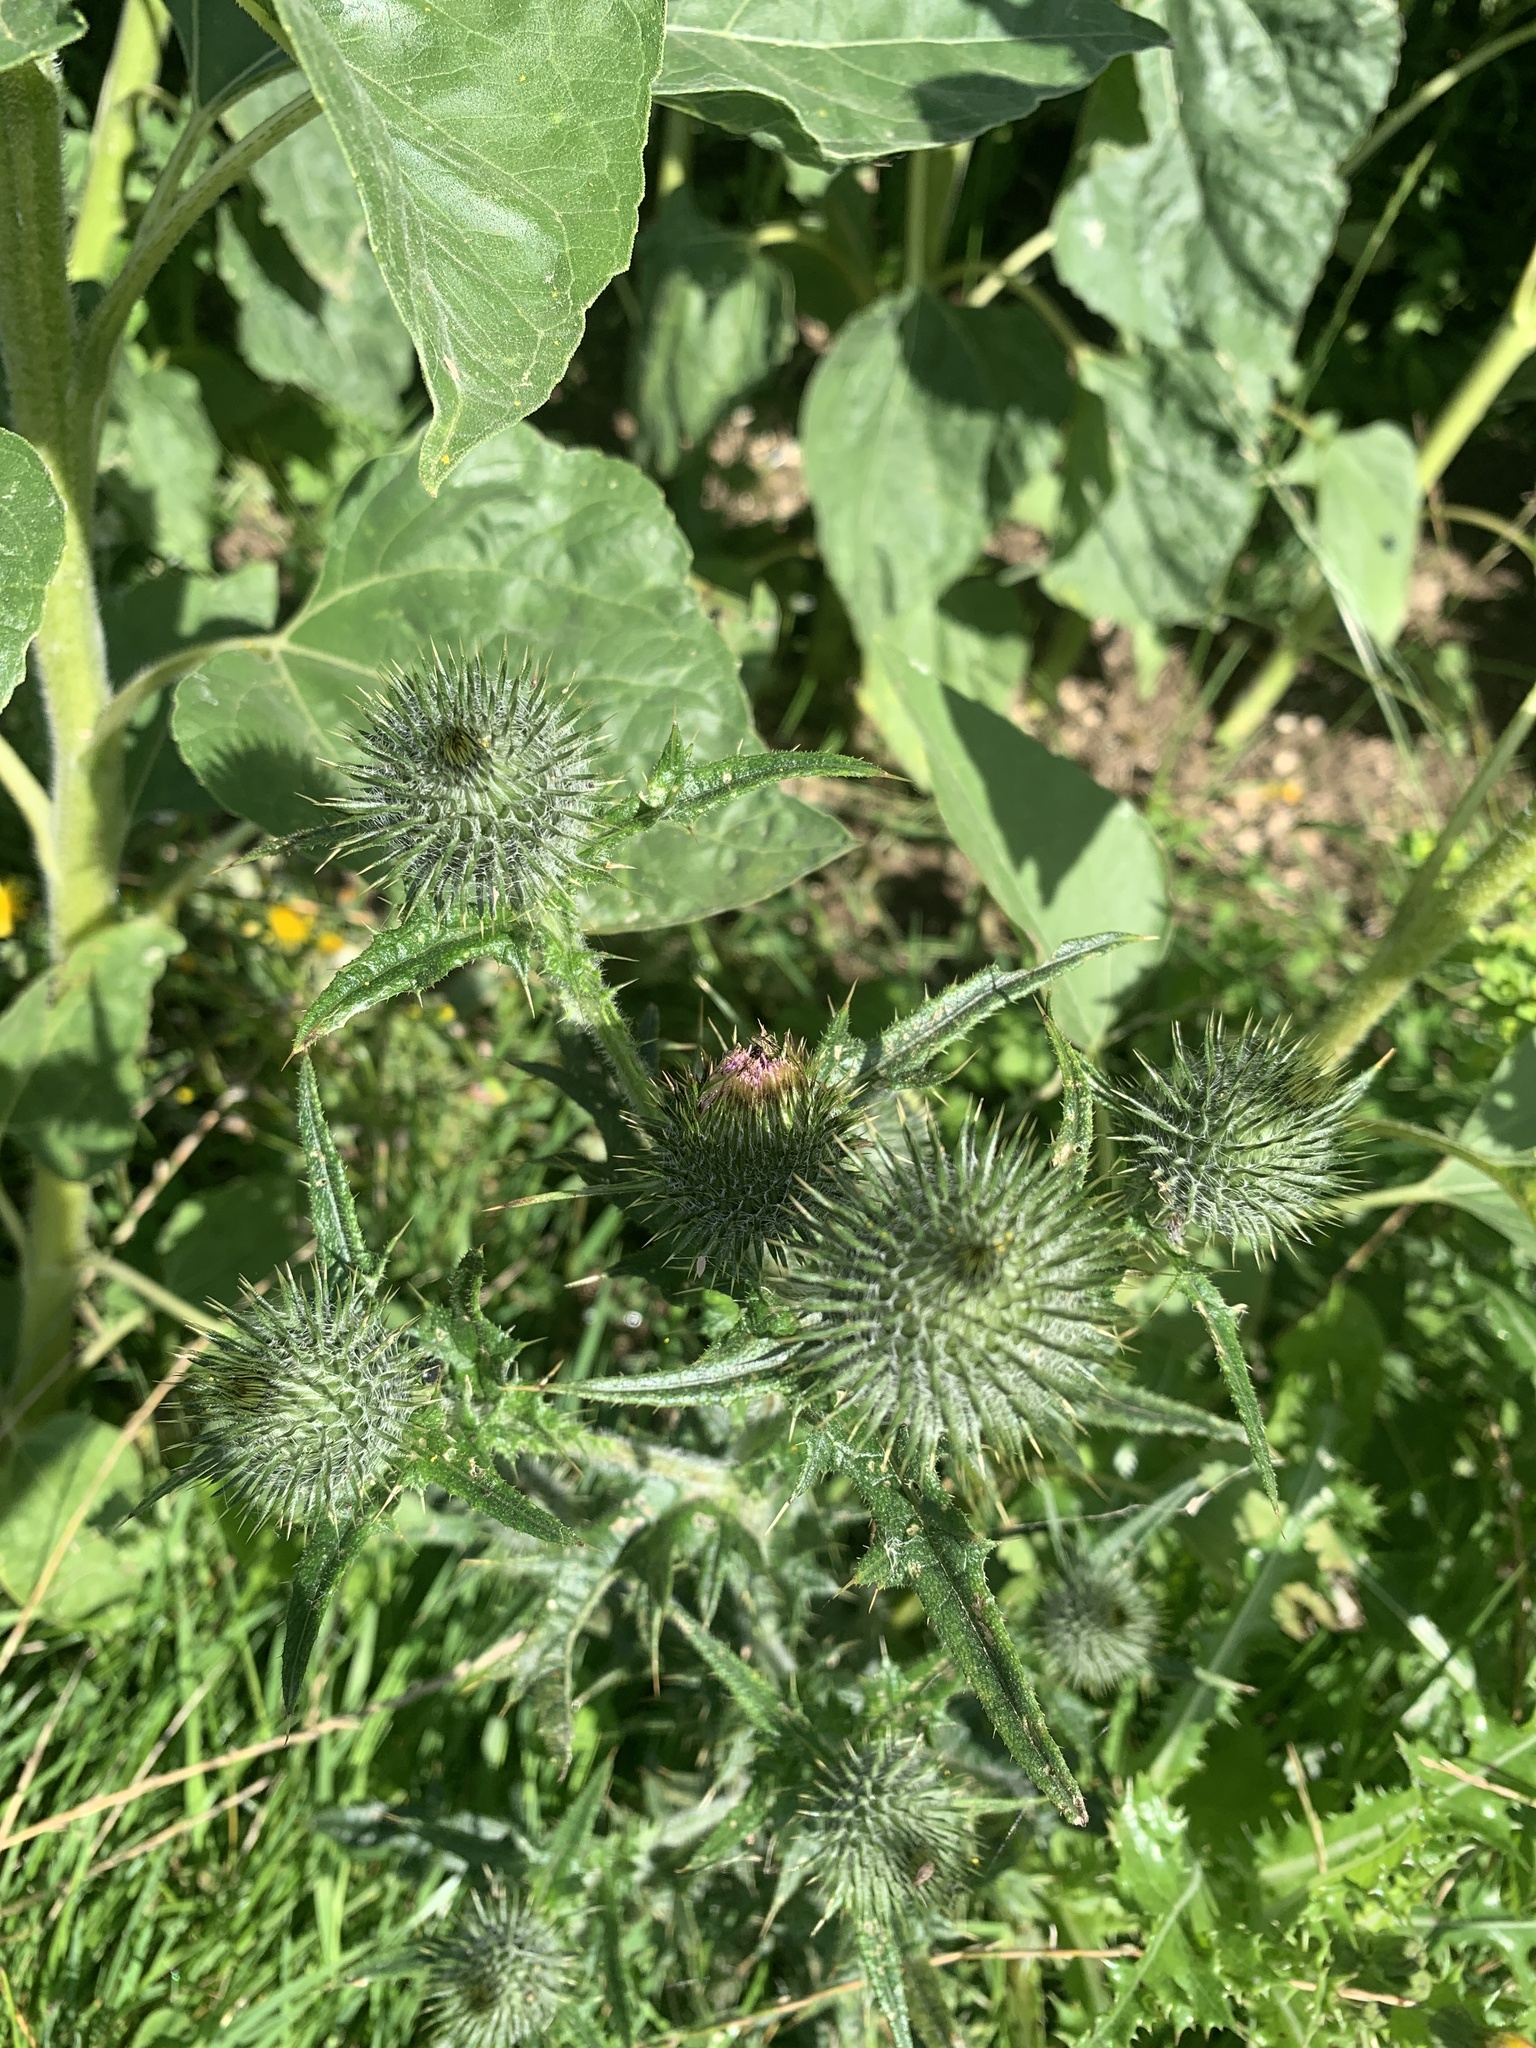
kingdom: Plantae
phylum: Tracheophyta
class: Magnoliopsida
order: Asterales
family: Asteraceae
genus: Cirsium
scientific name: Cirsium vulgare
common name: Bull thistle
